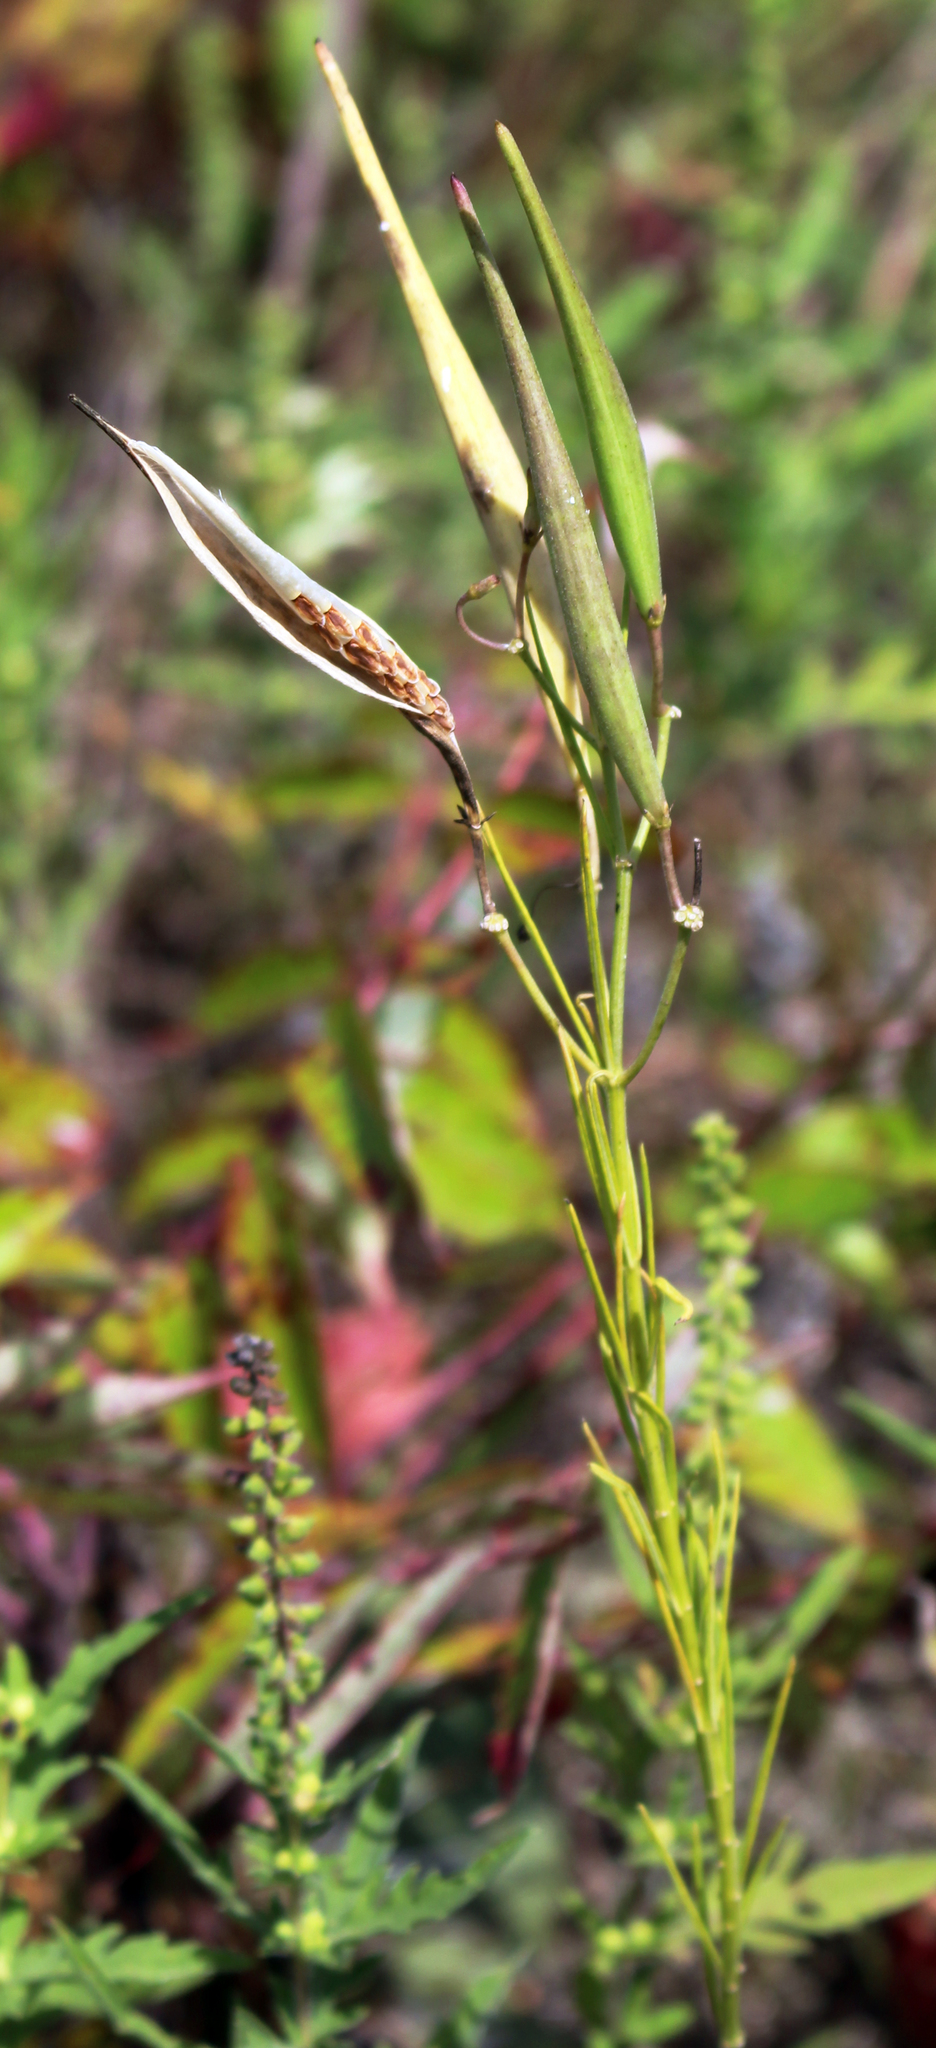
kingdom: Plantae
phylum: Tracheophyta
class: Magnoliopsida
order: Gentianales
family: Apocynaceae
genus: Asclepias
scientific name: Asclepias verticillata
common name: Eastern whorled milkweed
